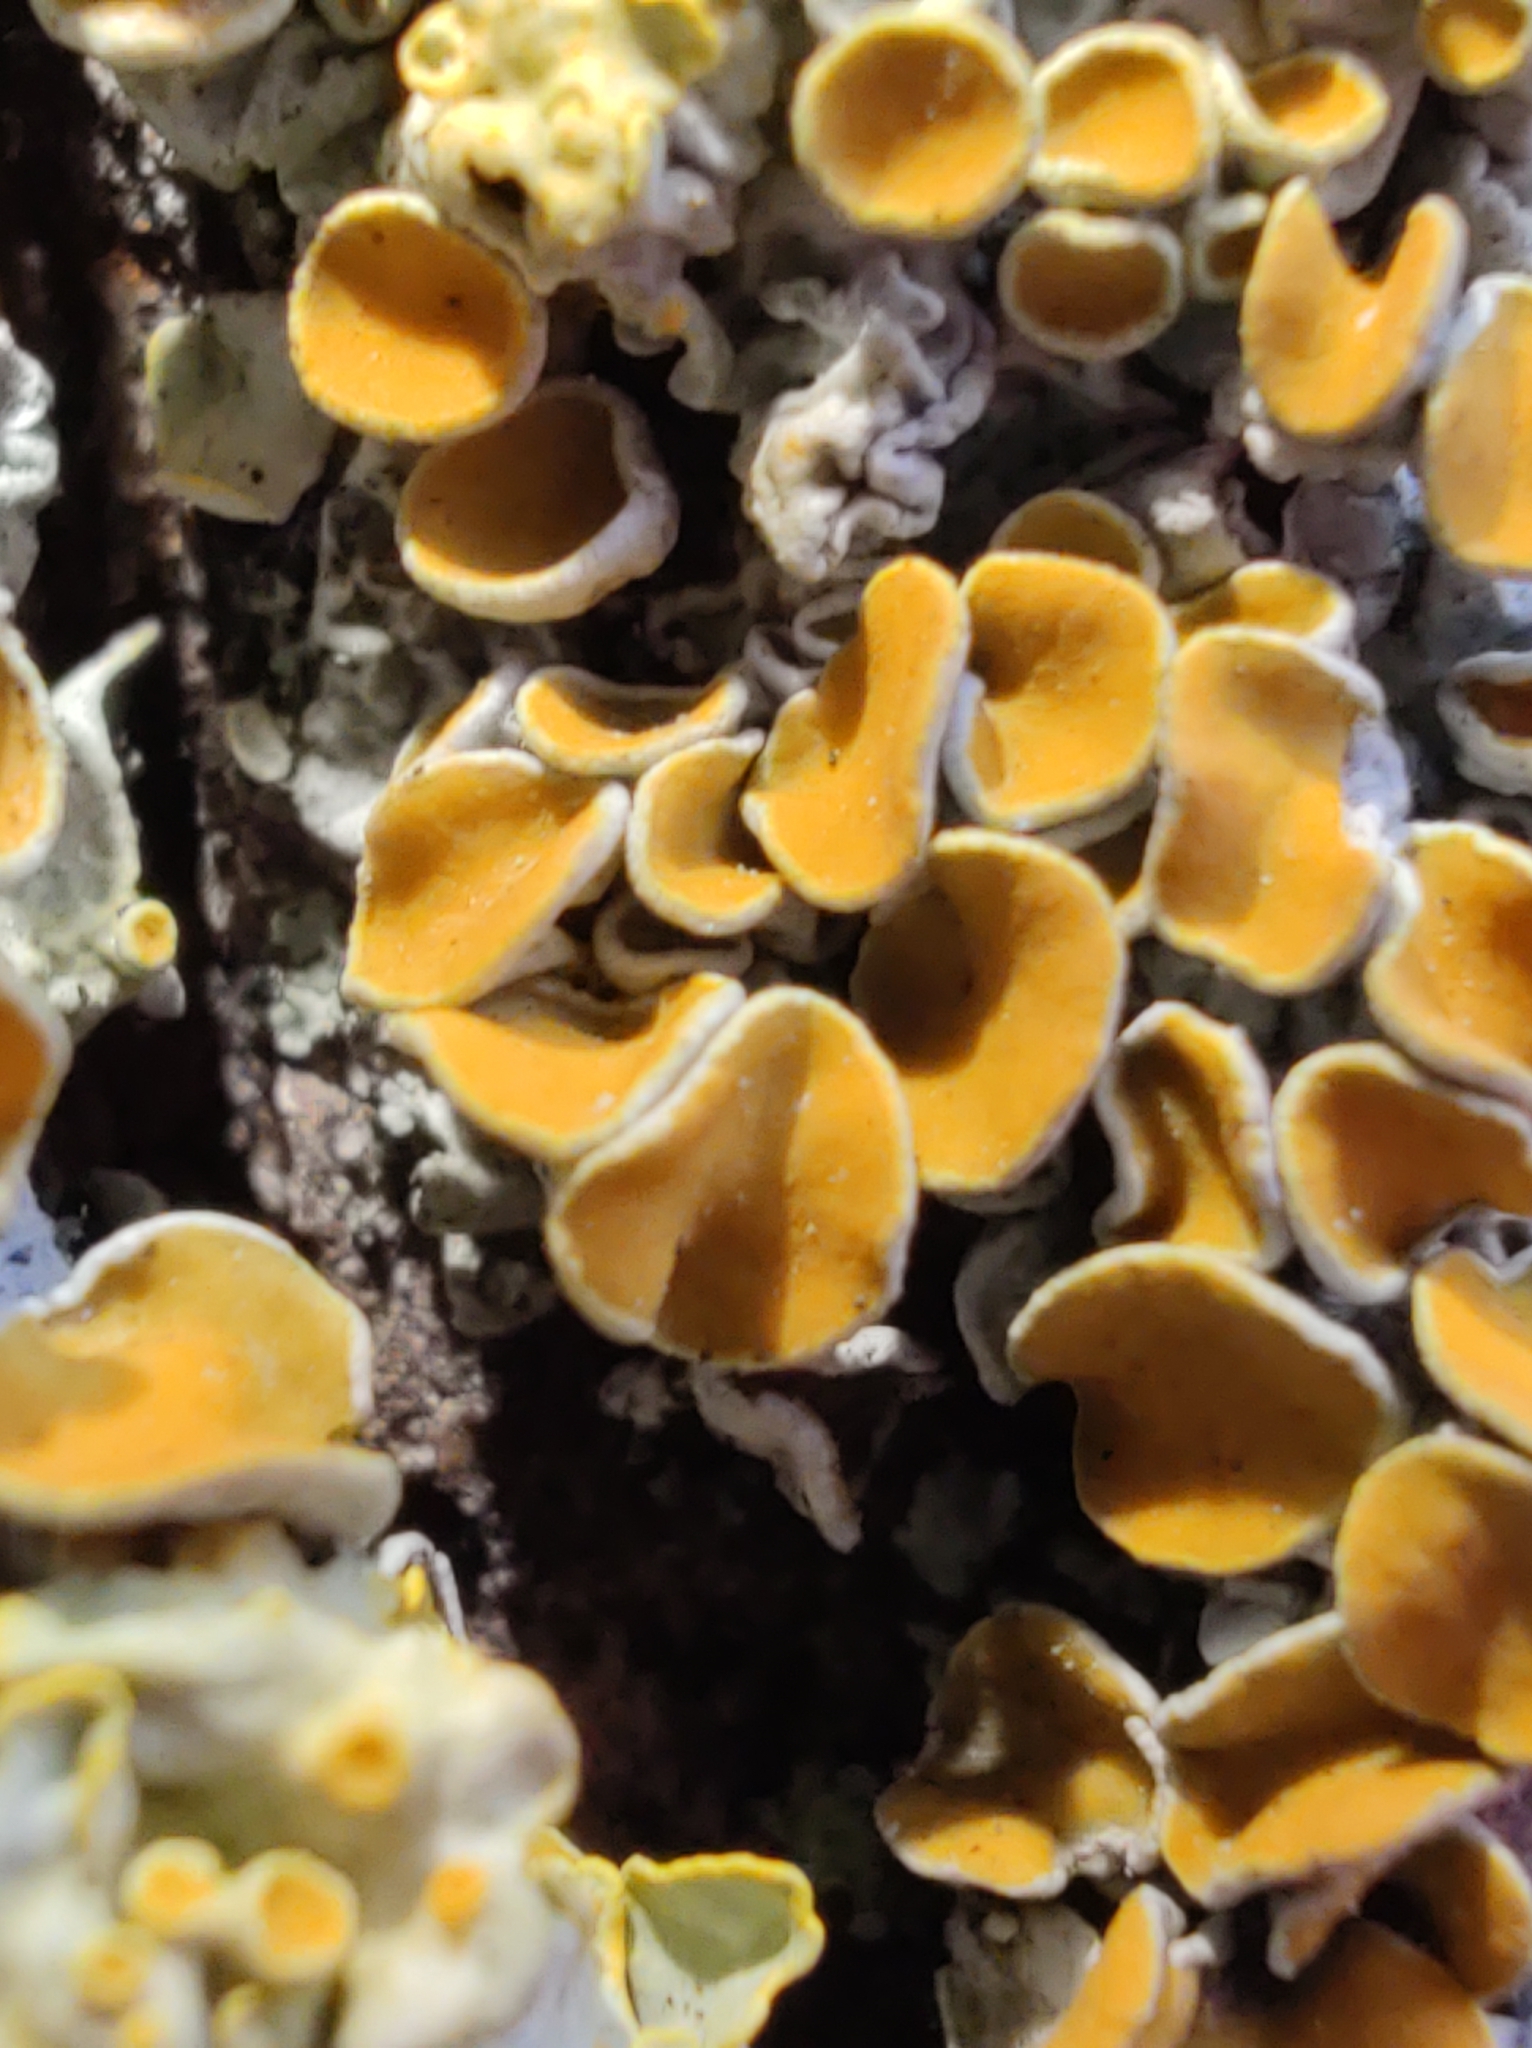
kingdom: Fungi
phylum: Ascomycota
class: Lecanoromycetes
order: Teloschistales
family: Teloschistaceae
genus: Xanthoria
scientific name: Xanthoria parietina
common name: Common orange lichen
